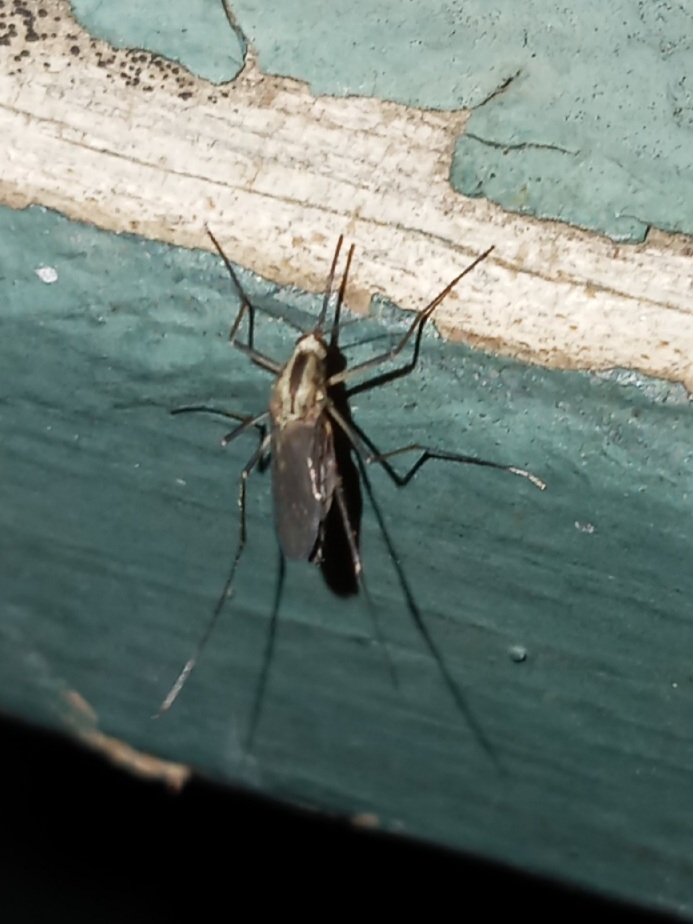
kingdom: Animalia
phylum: Arthropoda
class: Insecta
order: Diptera
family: Culicidae
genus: Aedes
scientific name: Aedes trivittatus
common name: Plains floodwater mosquito
